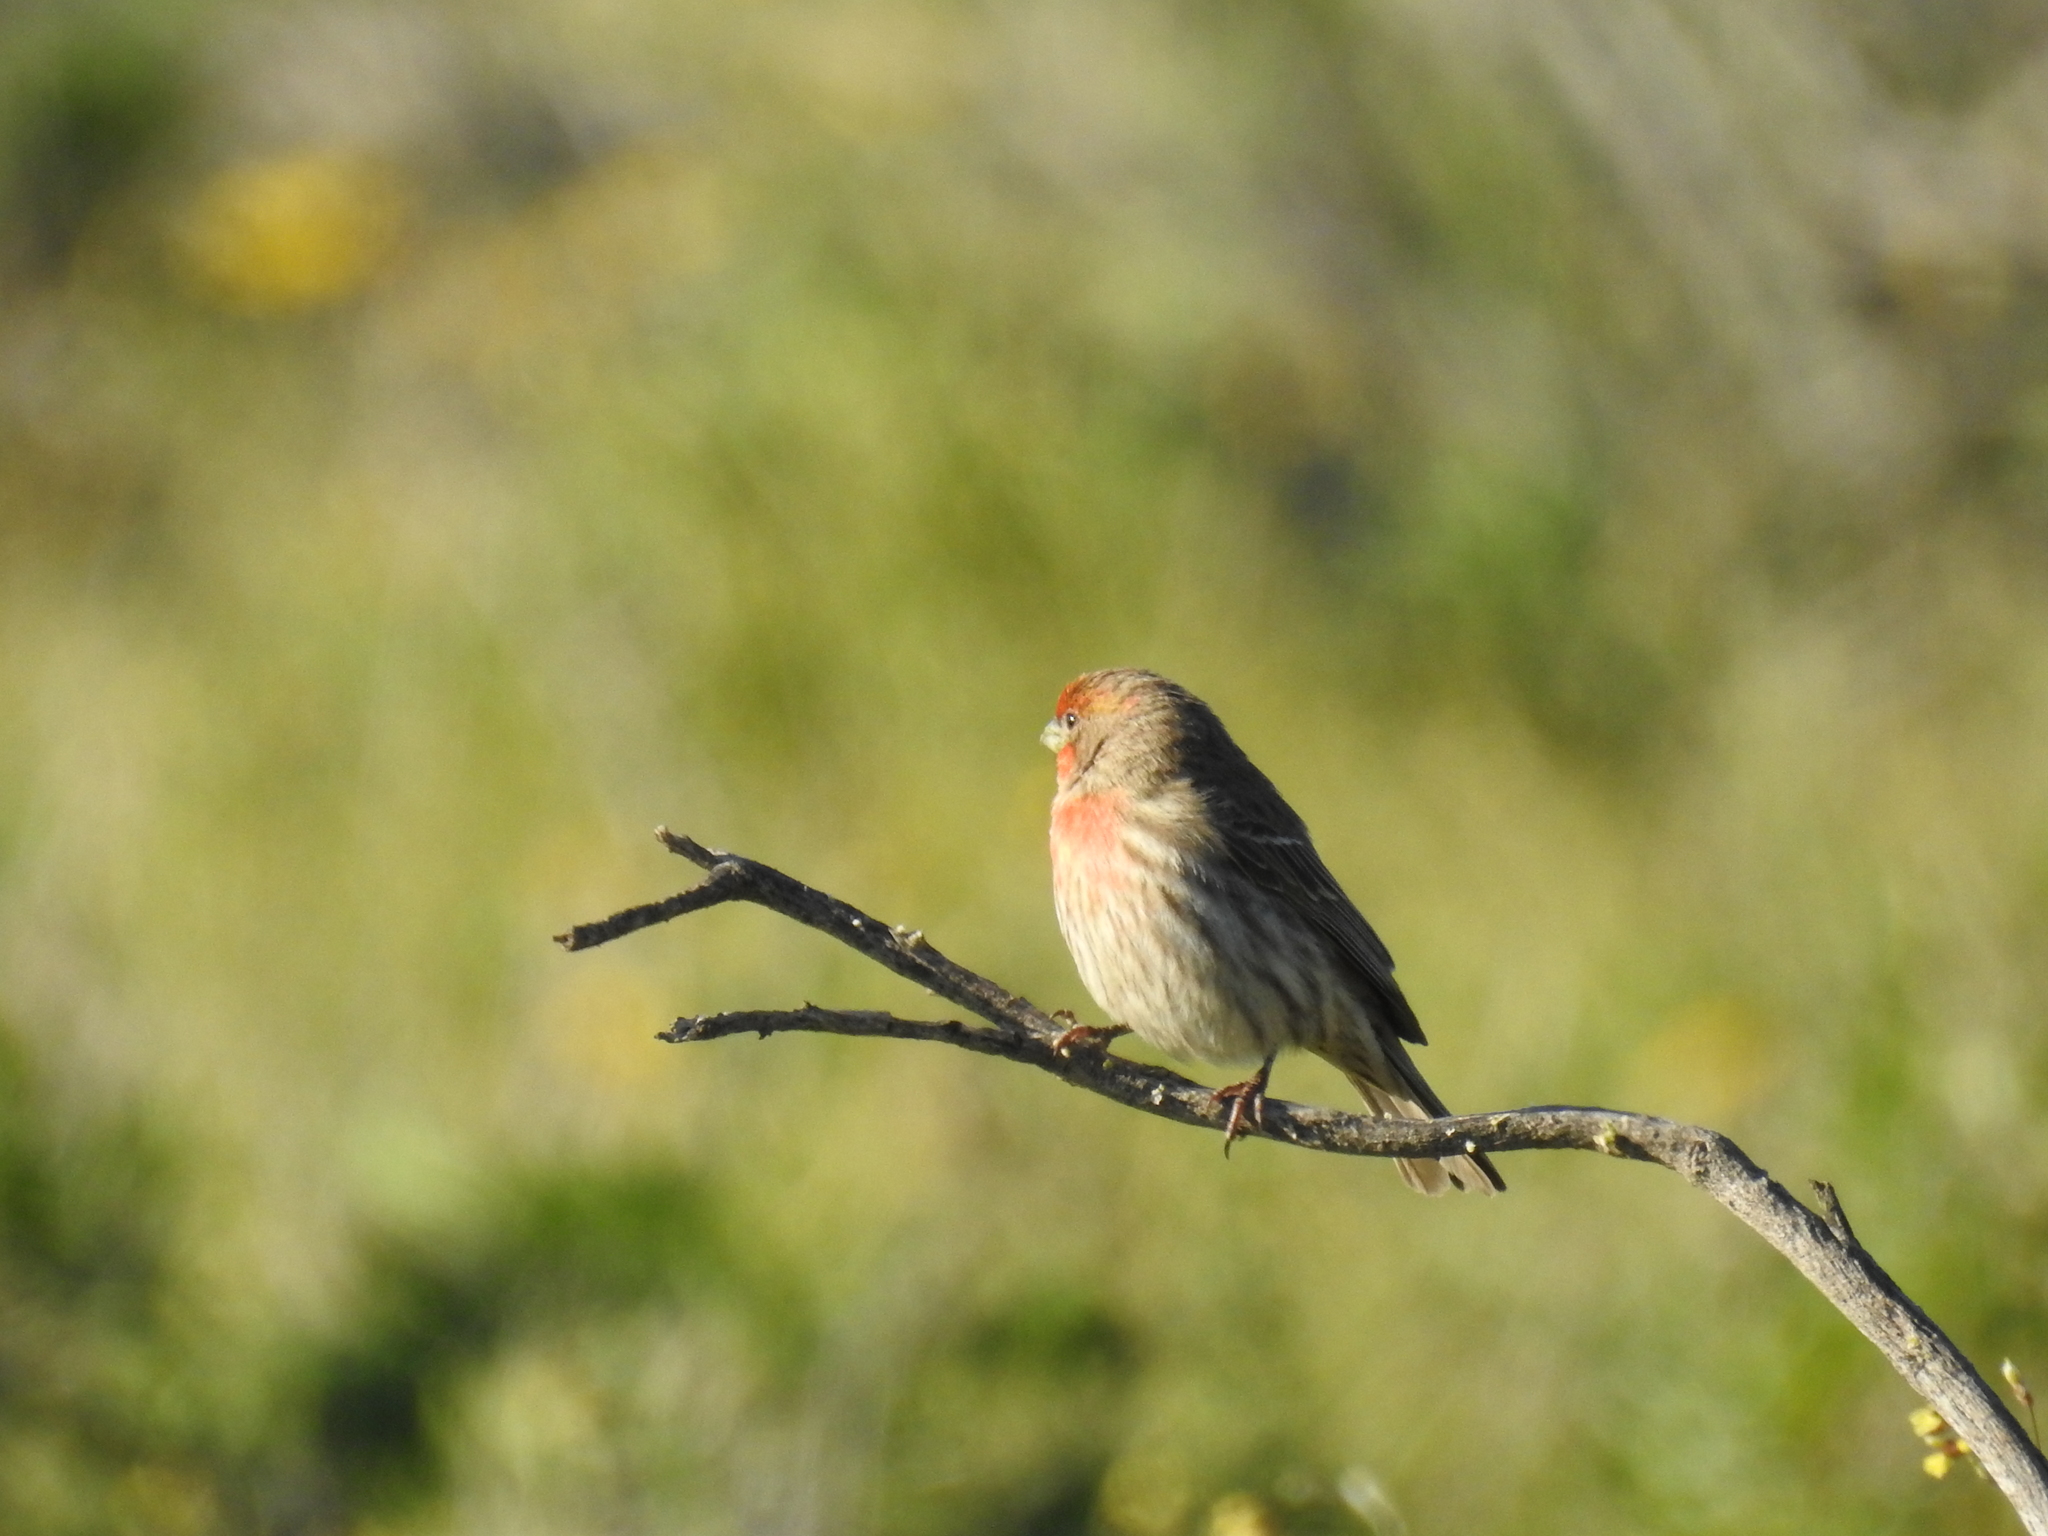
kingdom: Animalia
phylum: Chordata
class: Aves
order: Passeriformes
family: Fringillidae
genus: Haemorhous
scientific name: Haemorhous mexicanus
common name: House finch
